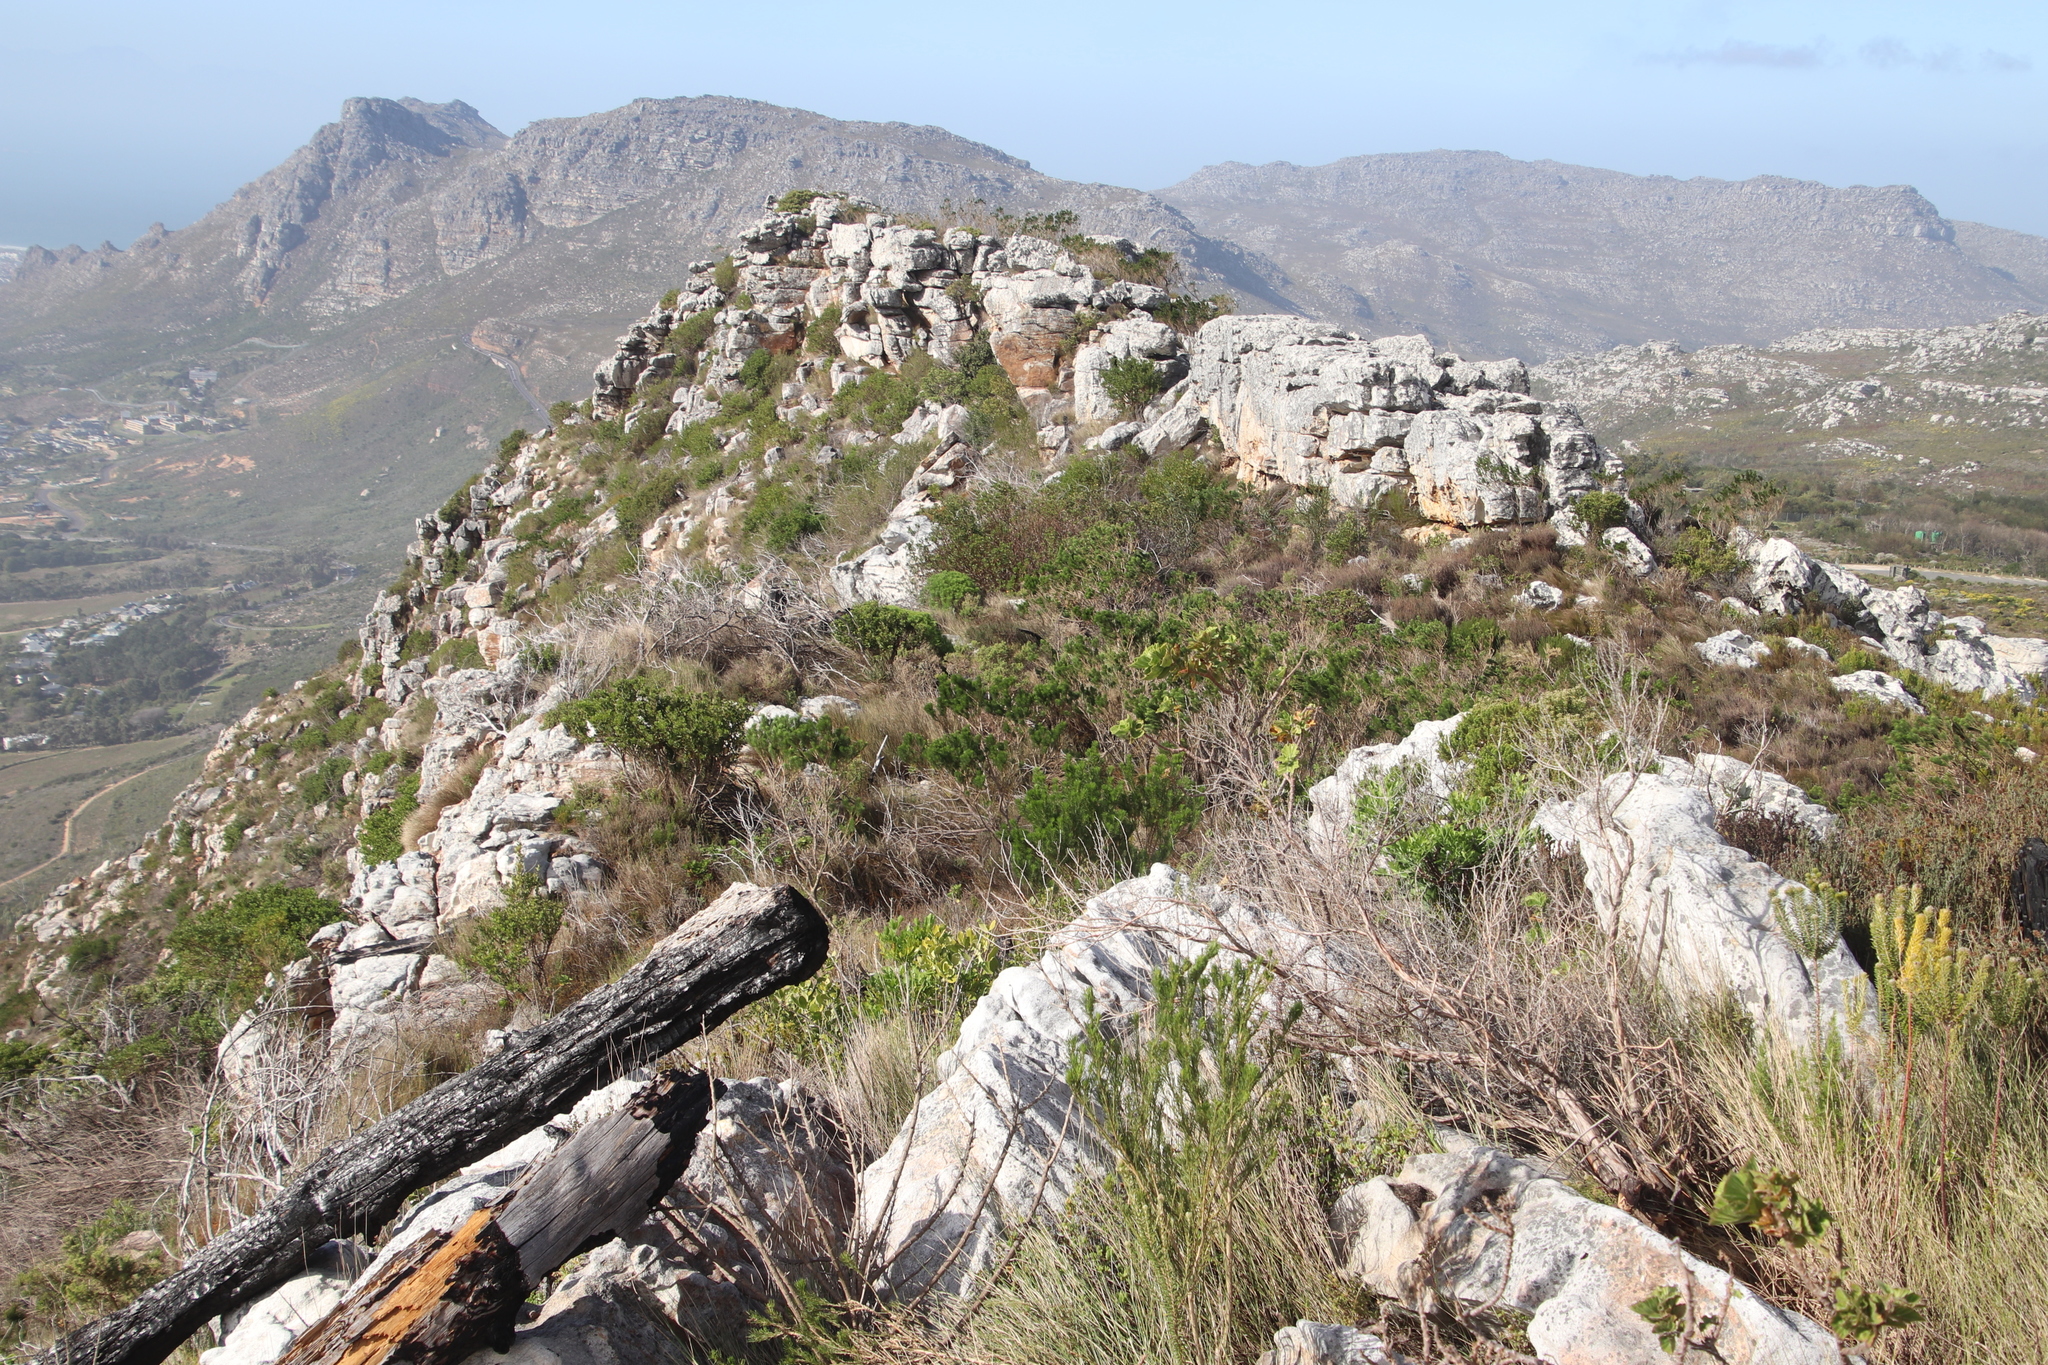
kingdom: Plantae
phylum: Tracheophyta
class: Magnoliopsida
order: Fabales
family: Fabaceae
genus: Psoralea
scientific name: Psoralea pinnata
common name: African scurfpea
